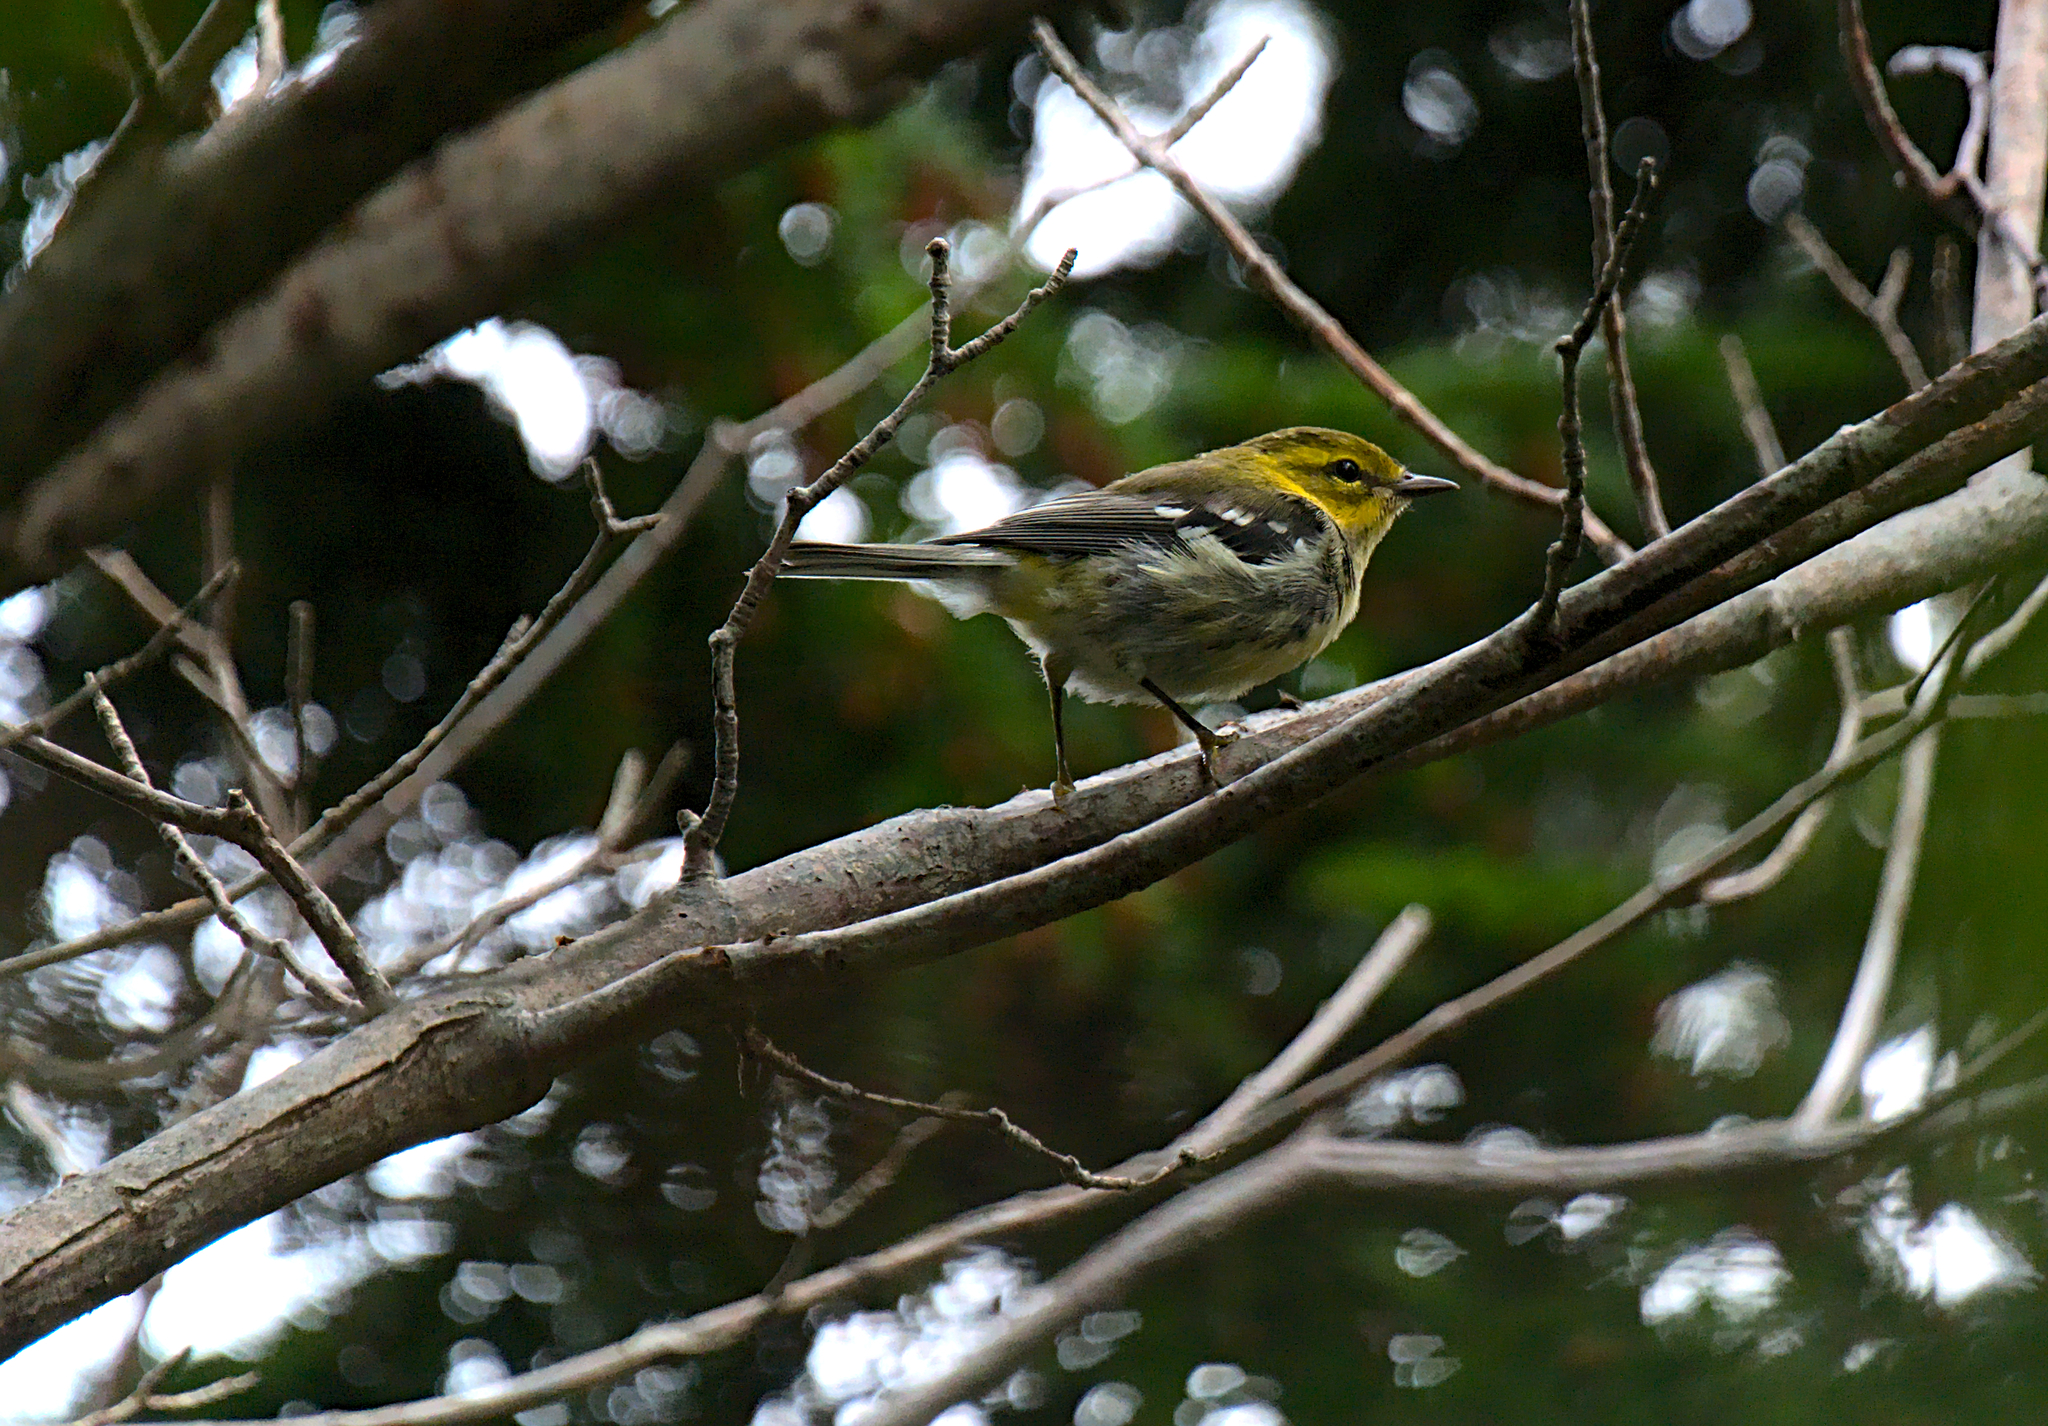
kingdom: Animalia
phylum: Chordata
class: Aves
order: Passeriformes
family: Parulidae
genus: Setophaga
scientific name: Setophaga virens
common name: Black-throated green warbler
